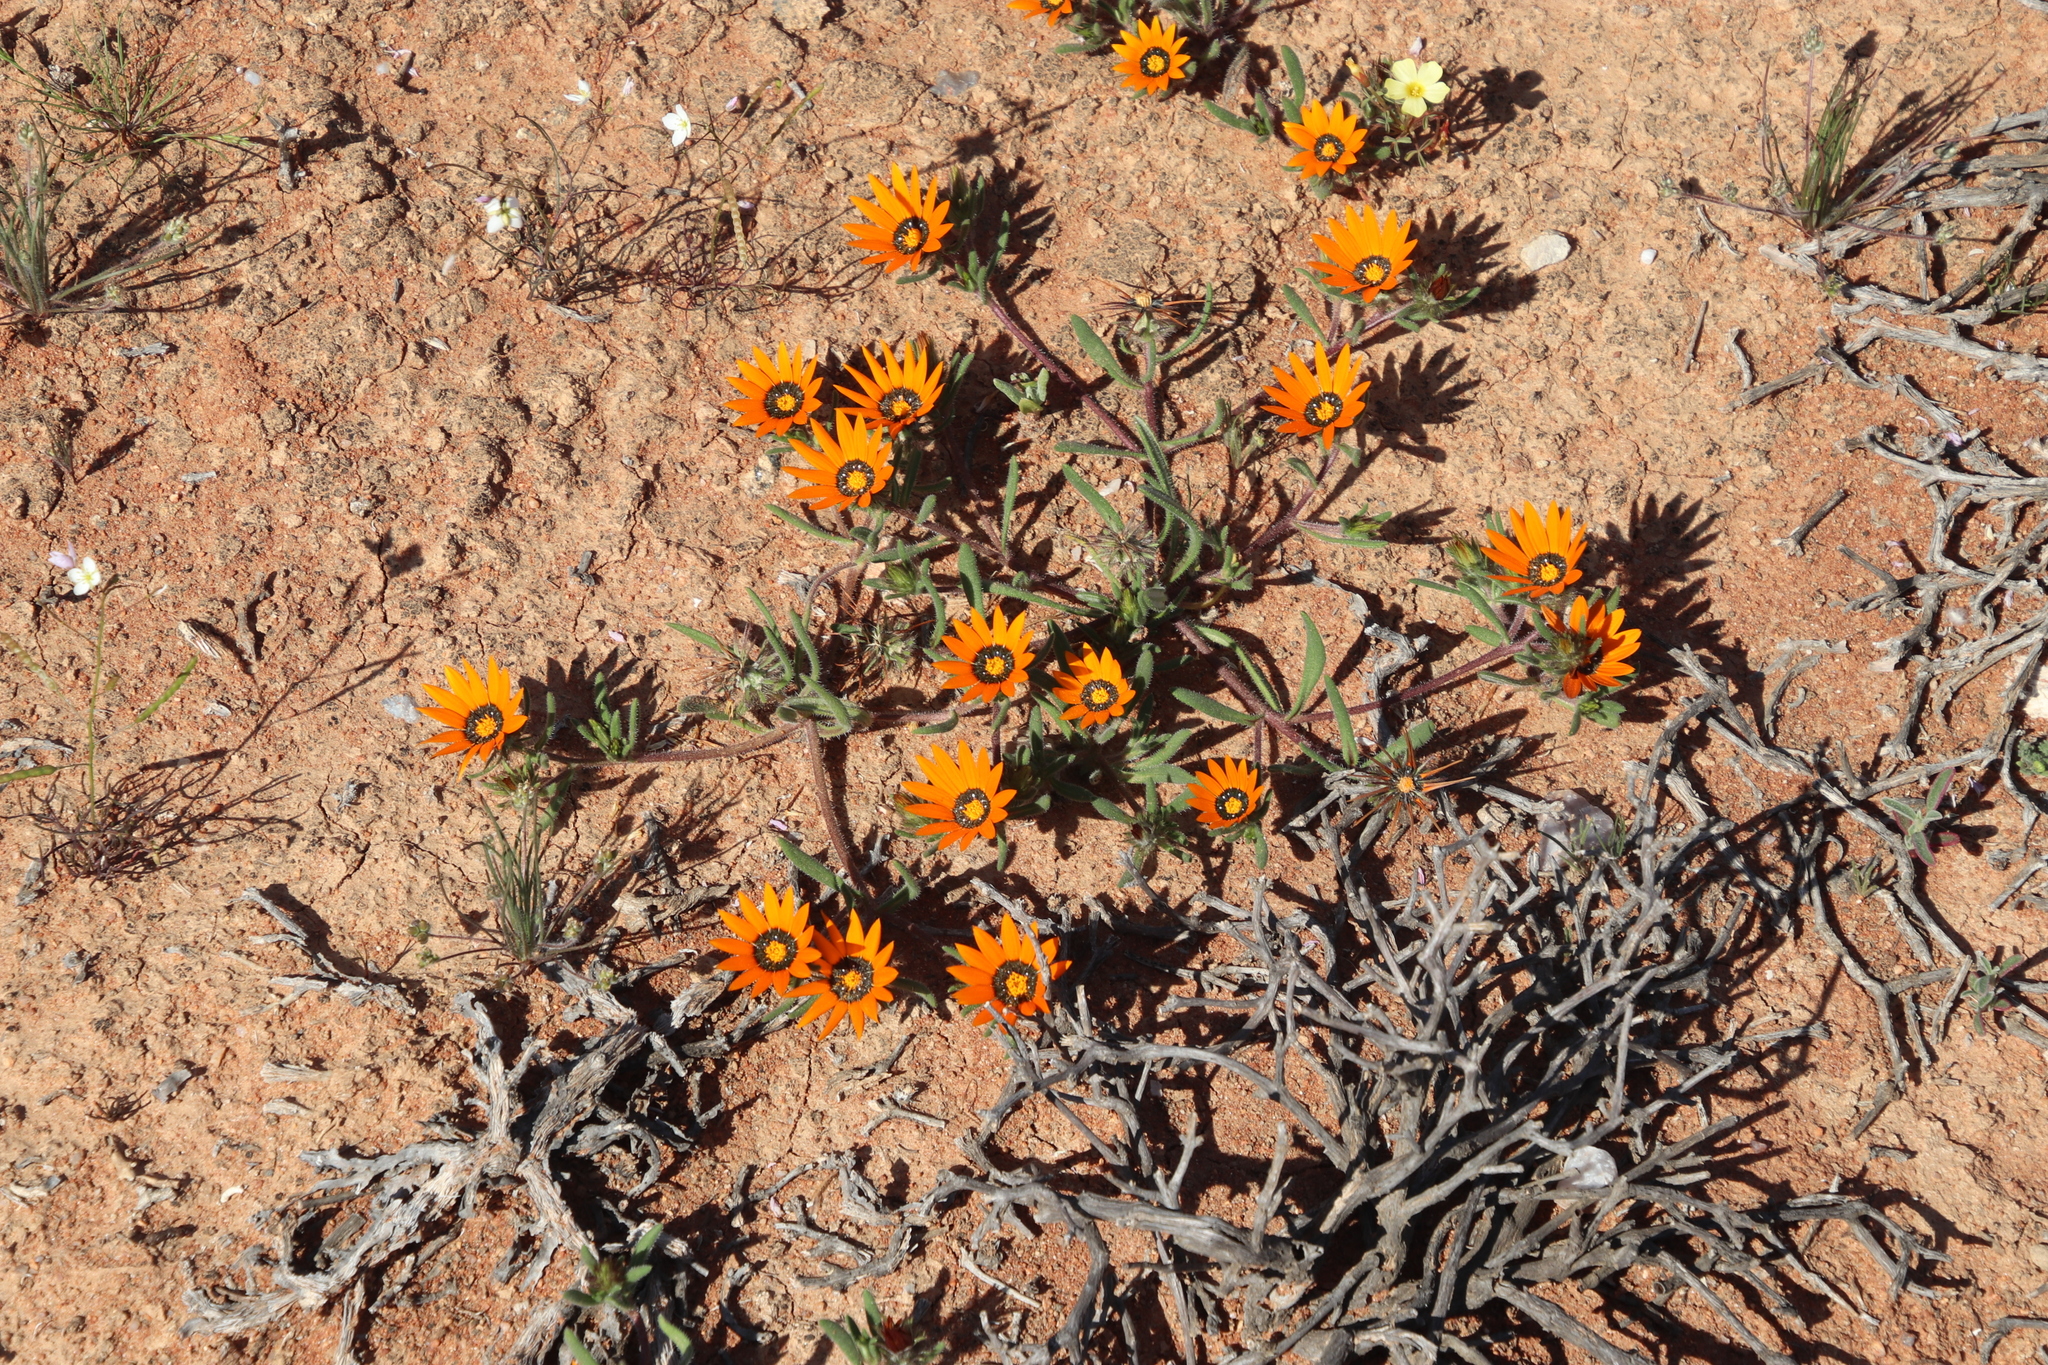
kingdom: Plantae
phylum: Tracheophyta
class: Magnoliopsida
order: Asterales
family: Asteraceae
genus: Gorteria
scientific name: Gorteria diffusa
